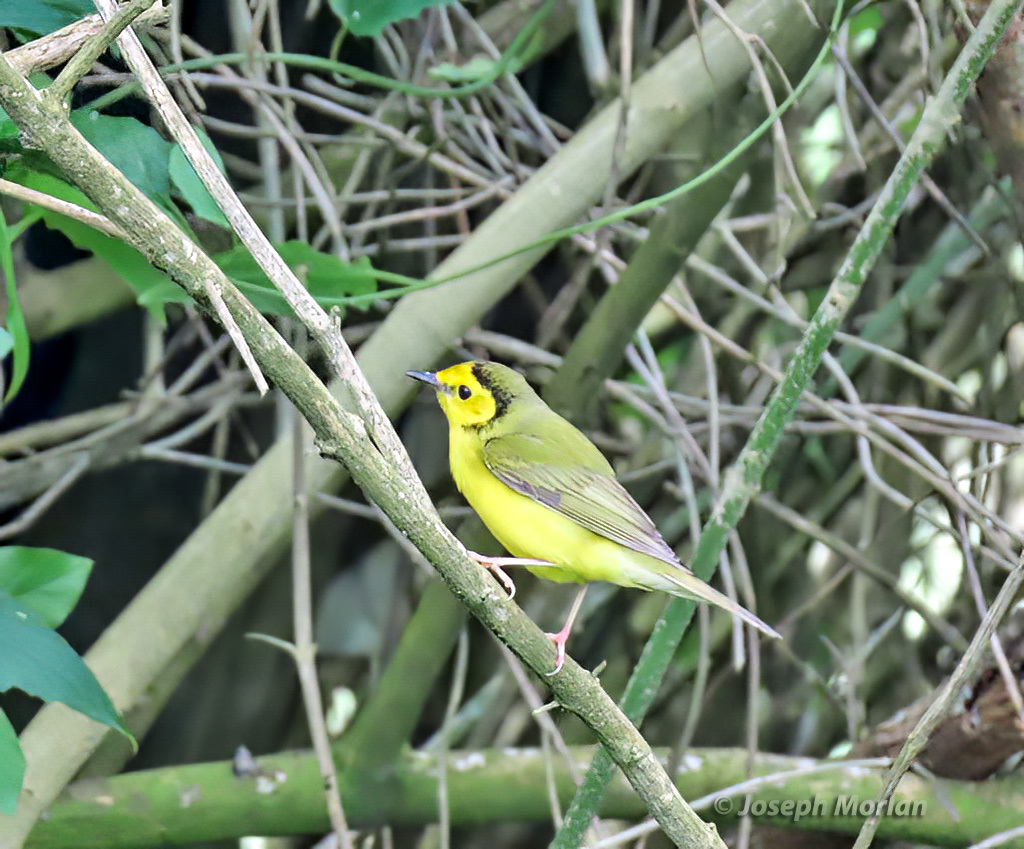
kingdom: Animalia
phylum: Chordata
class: Aves
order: Passeriformes
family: Parulidae
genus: Setophaga
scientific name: Setophaga citrina
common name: Hooded warbler
